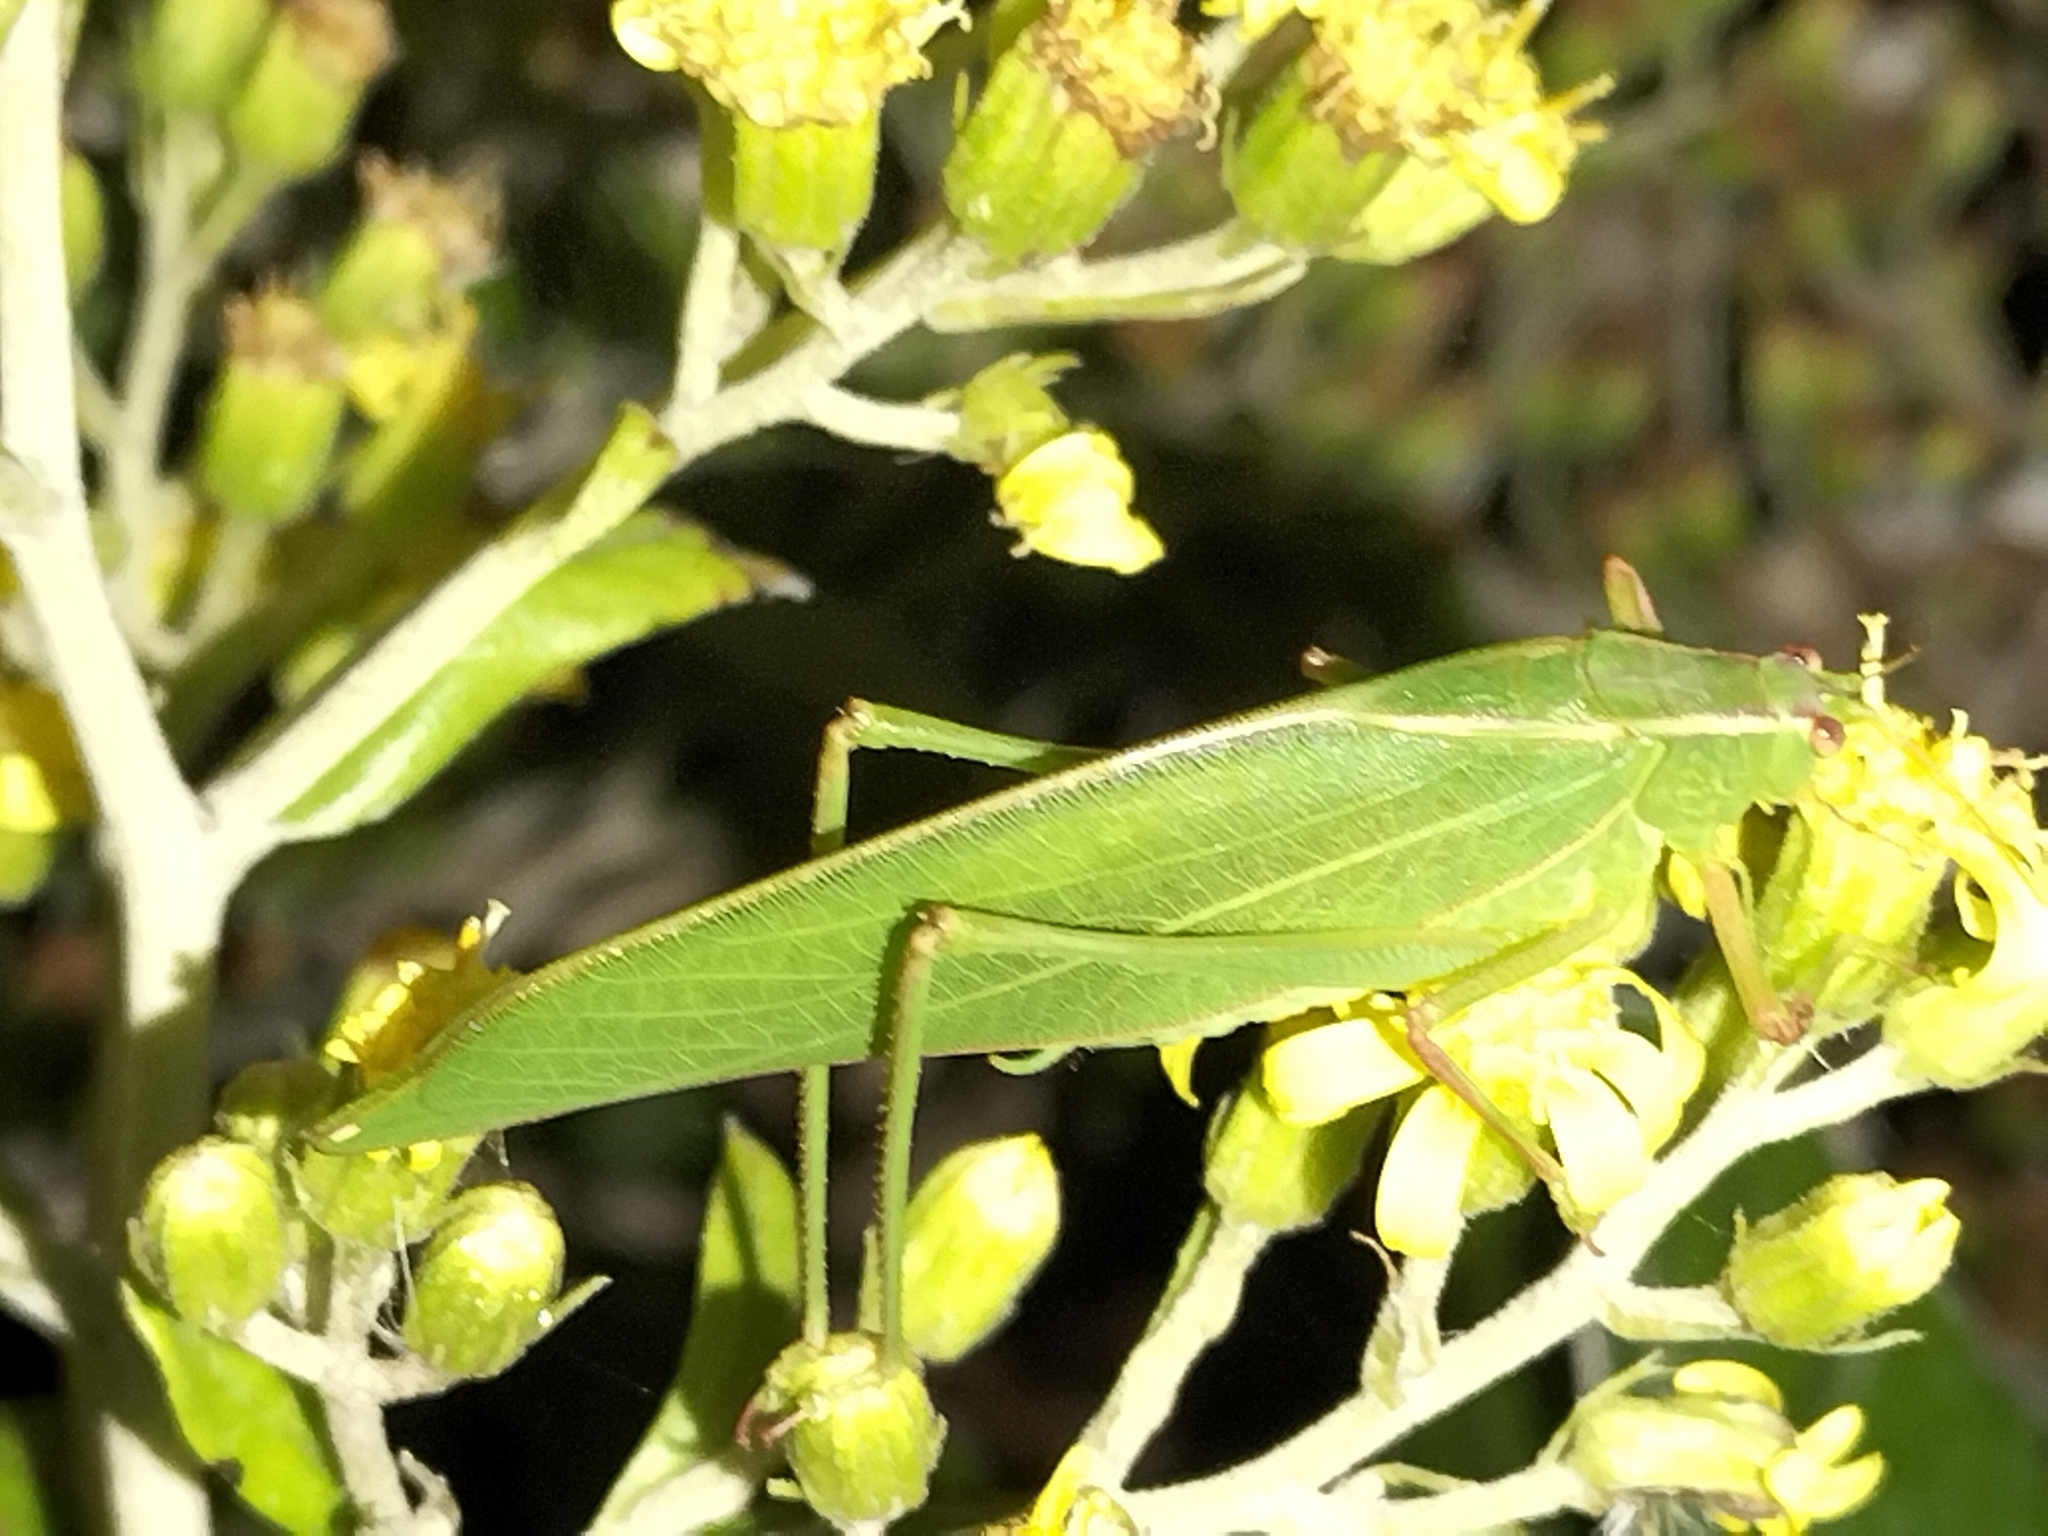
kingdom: Animalia
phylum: Arthropoda
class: Insecta
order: Orthoptera
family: Tettigoniidae
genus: Caedicia
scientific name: Caedicia simplex
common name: Common garden katydid
